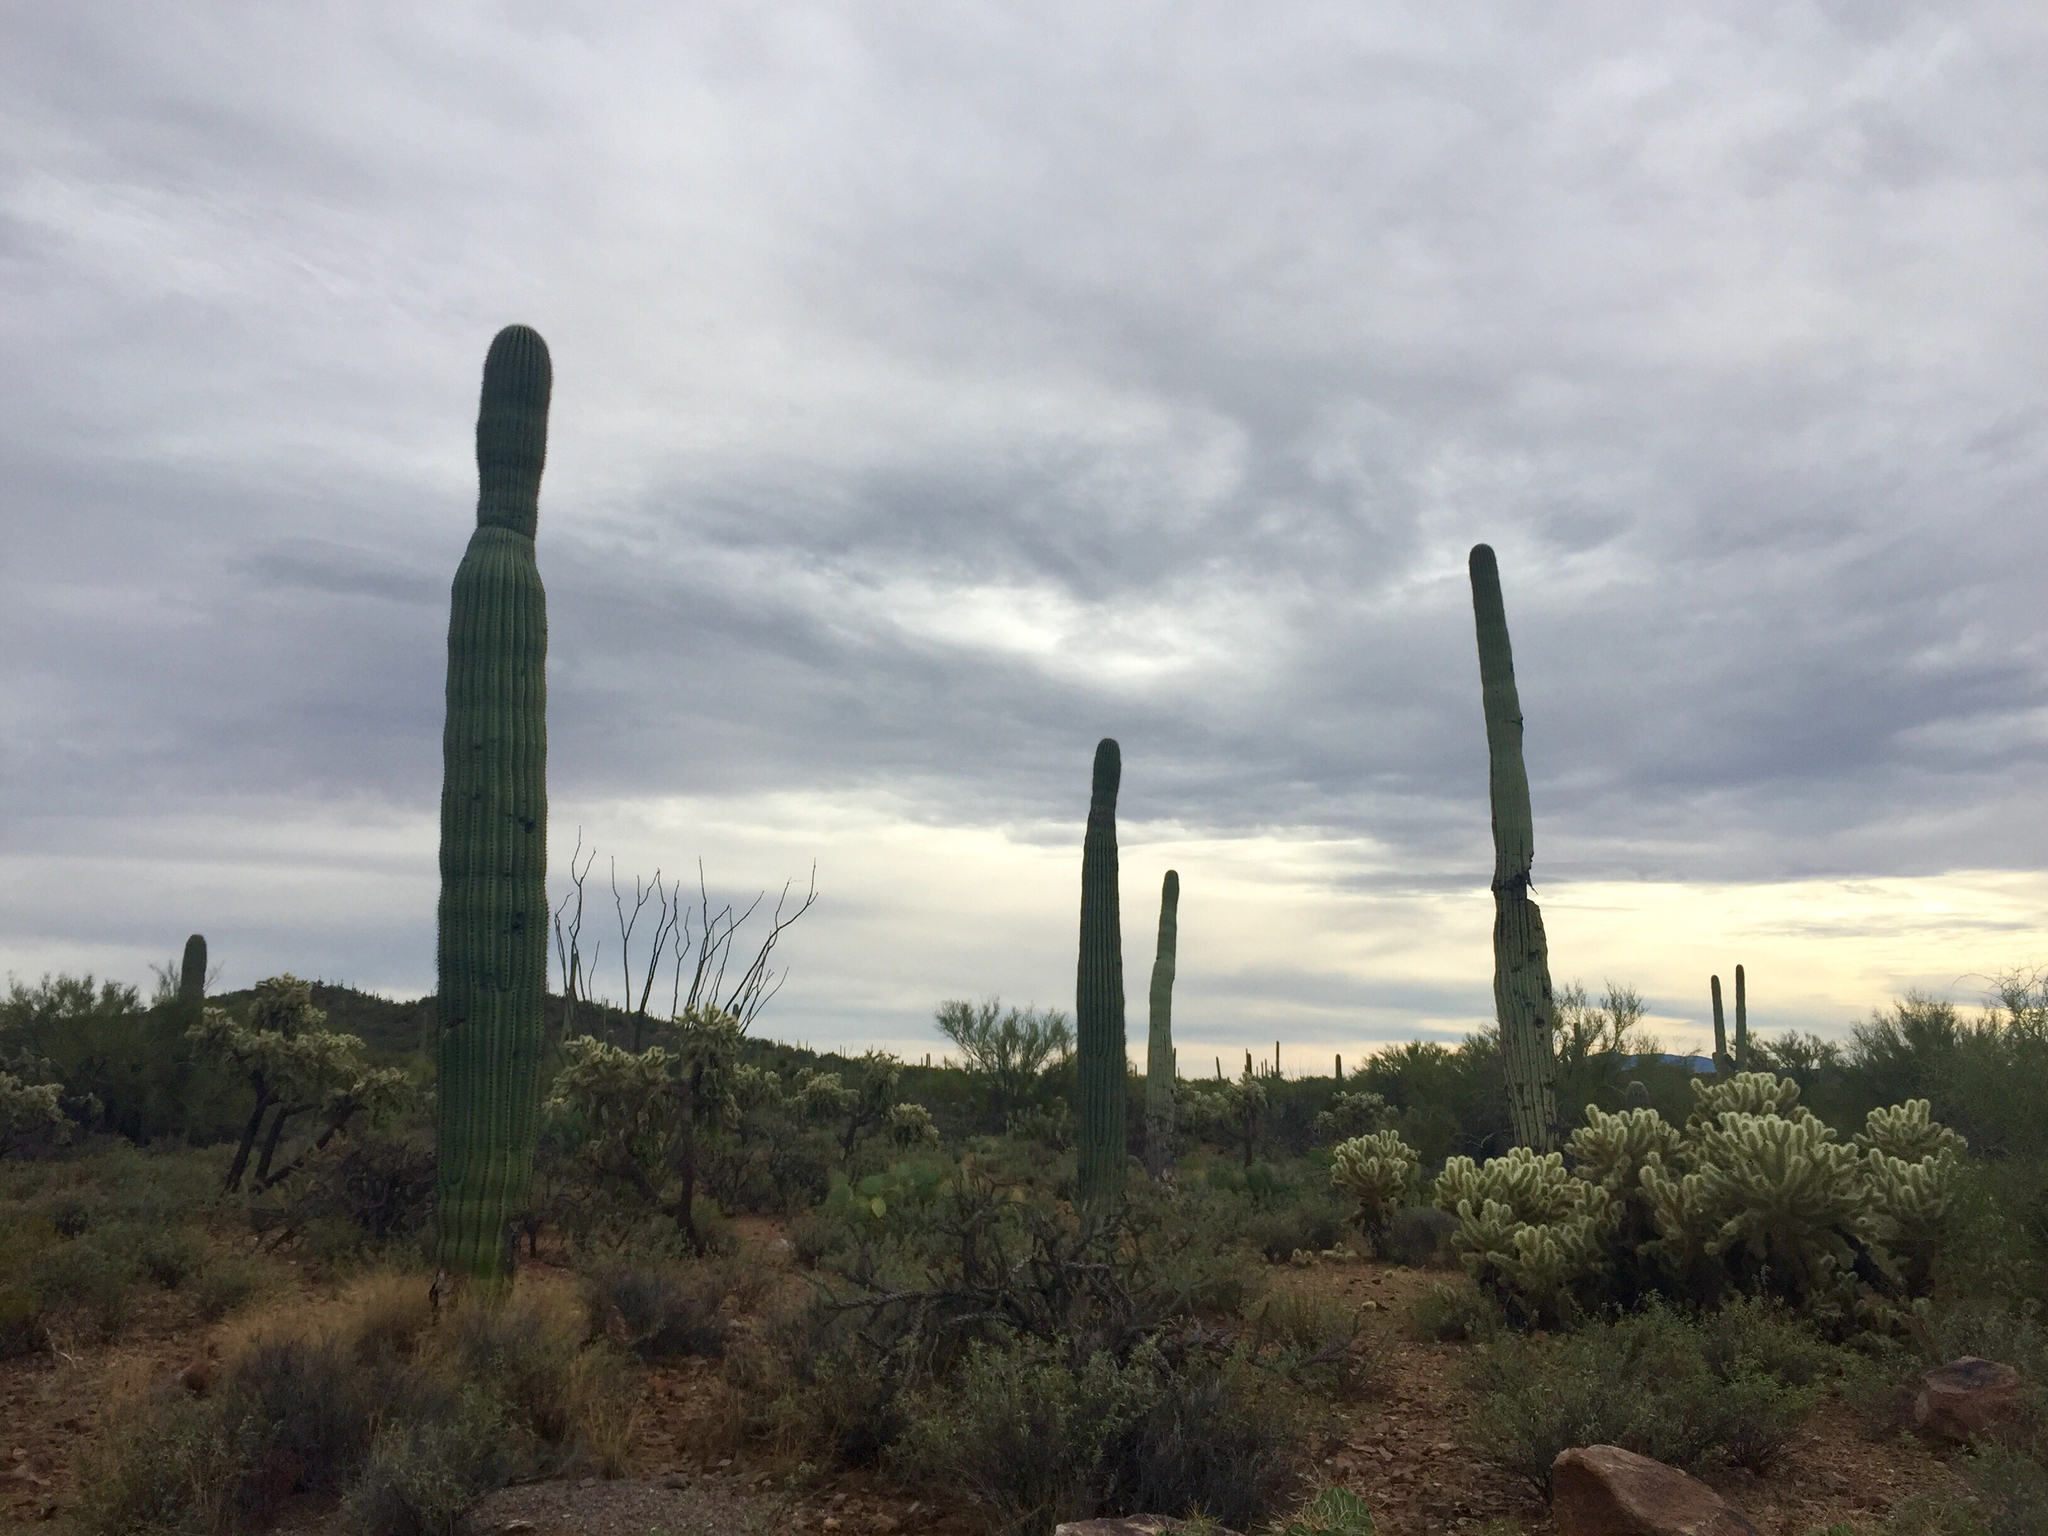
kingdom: Plantae
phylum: Tracheophyta
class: Magnoliopsida
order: Caryophyllales
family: Cactaceae
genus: Carnegiea
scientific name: Carnegiea gigantea
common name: Saguaro
